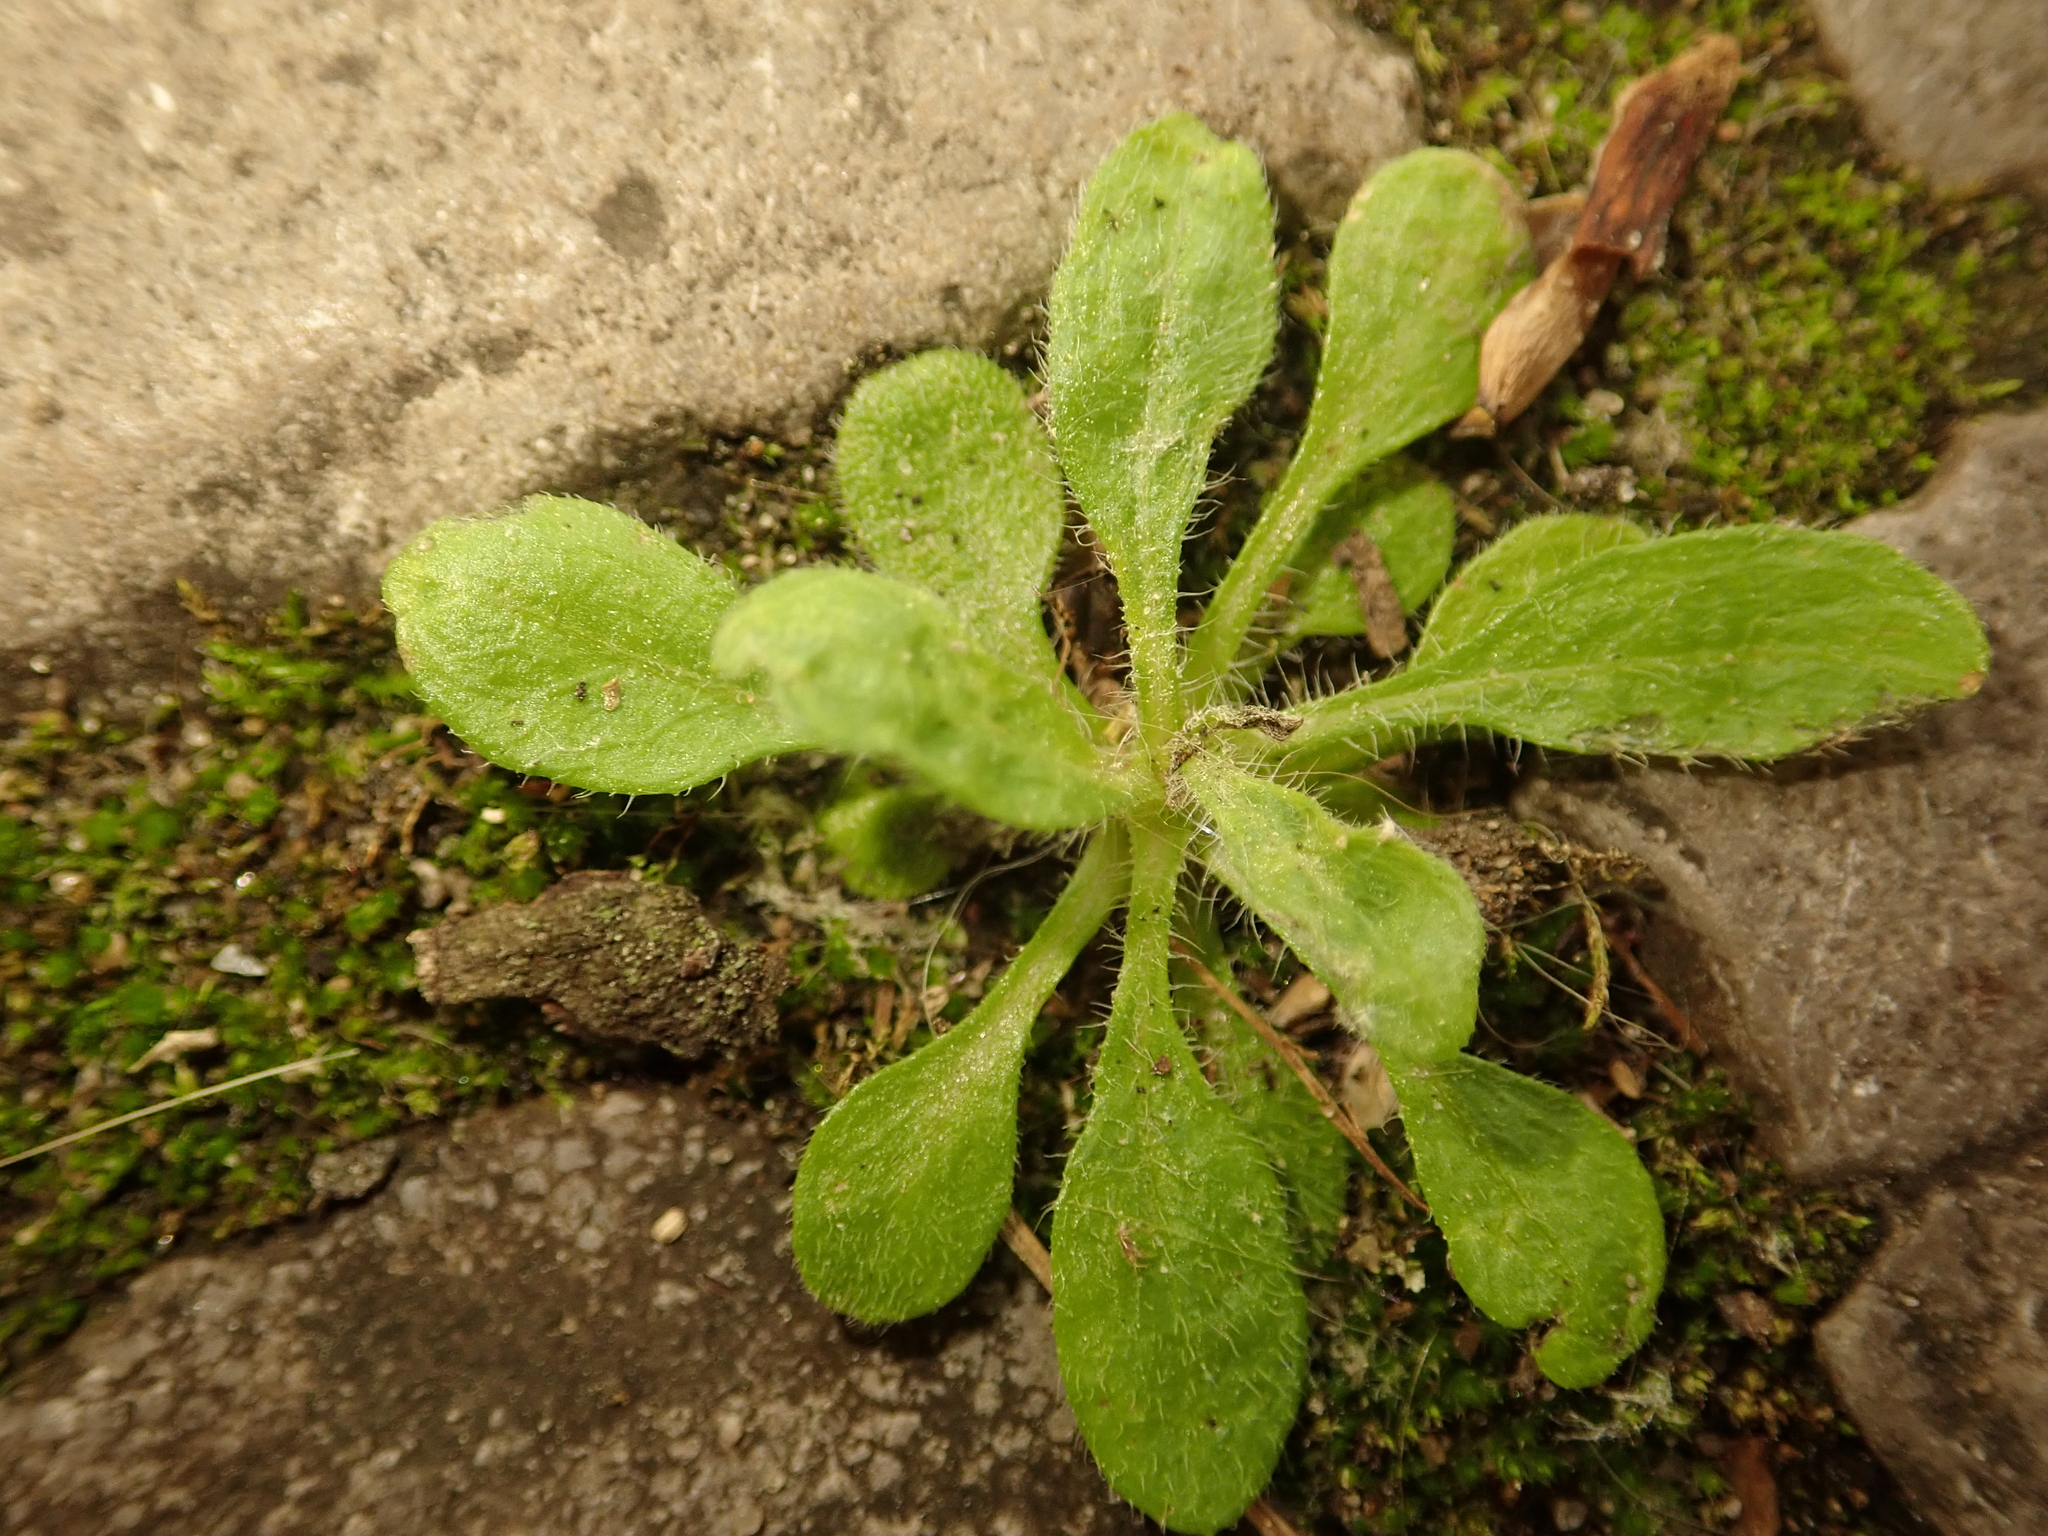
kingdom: Plantae
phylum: Tracheophyta
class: Magnoliopsida
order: Asterales
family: Asteraceae
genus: Erigeron
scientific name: Erigeron canadensis
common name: Canadian fleabane
